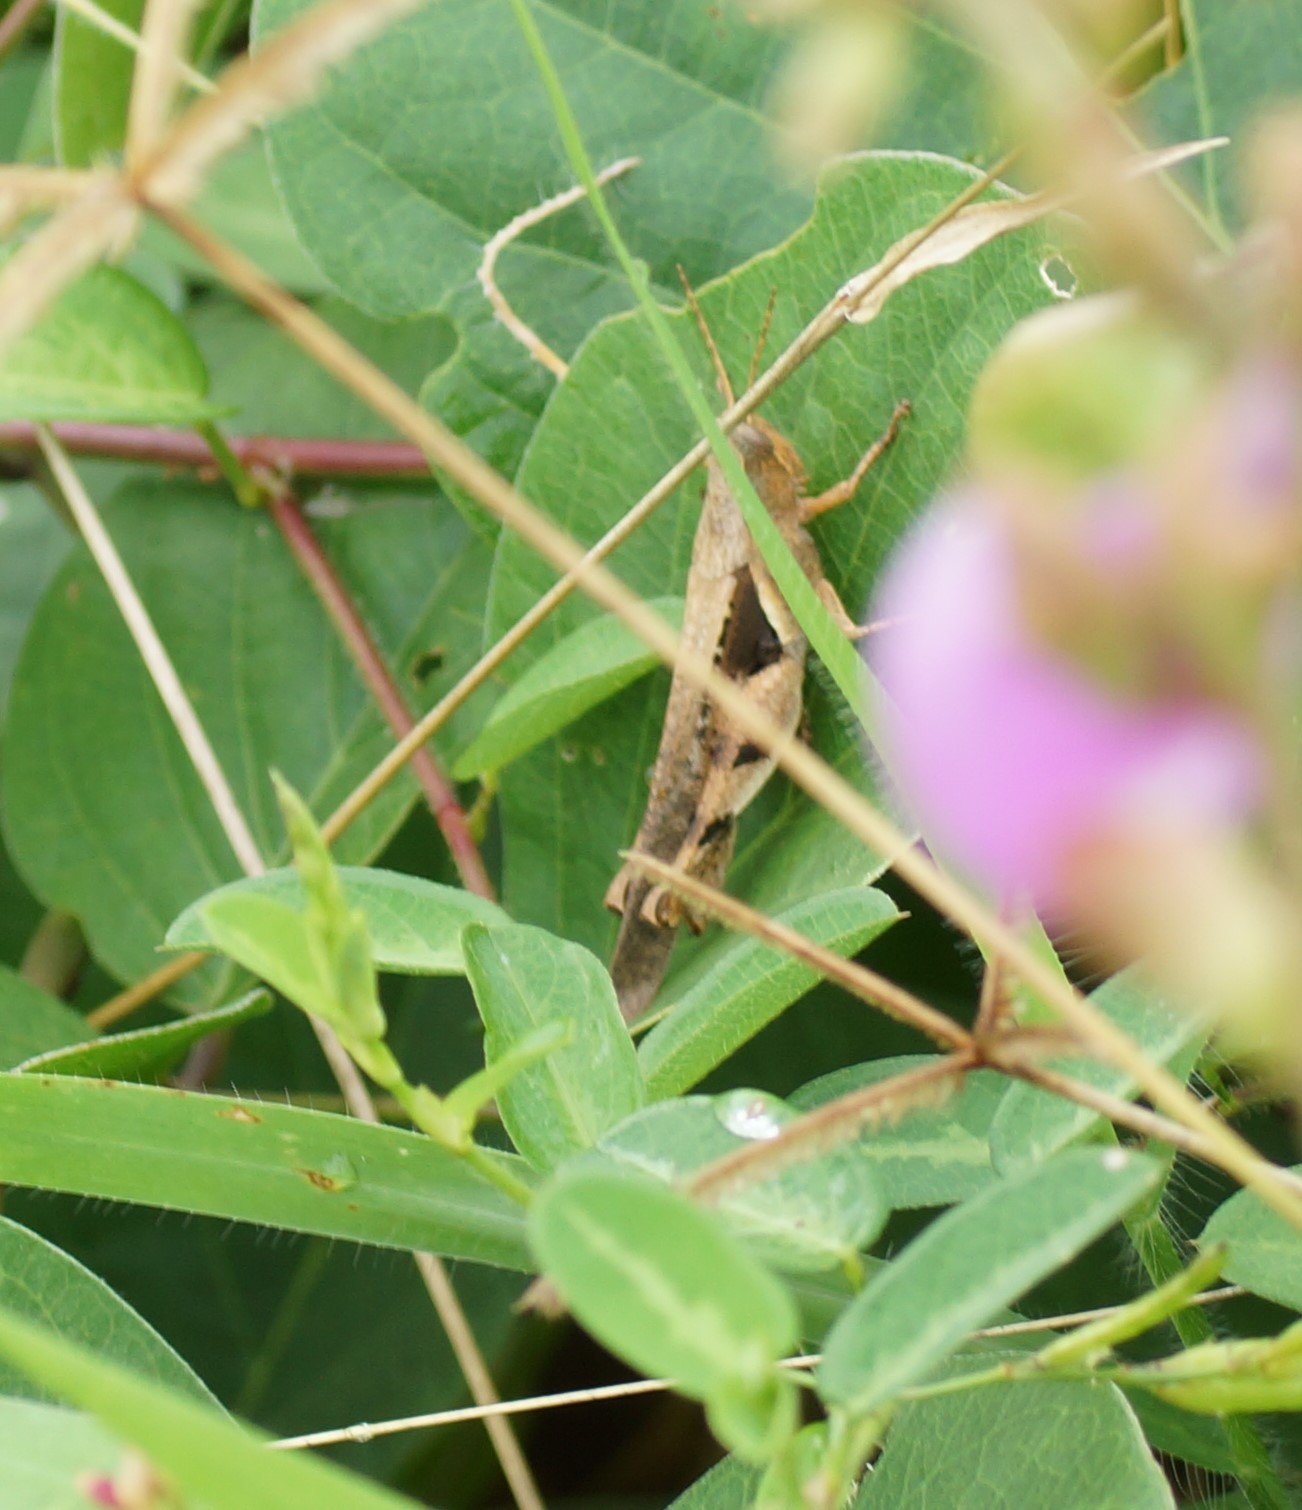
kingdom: Animalia
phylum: Arthropoda
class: Insecta
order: Orthoptera
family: Acrididae
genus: Stenocatantops
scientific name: Stenocatantops angustifrons
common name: Common tropical sharptail
